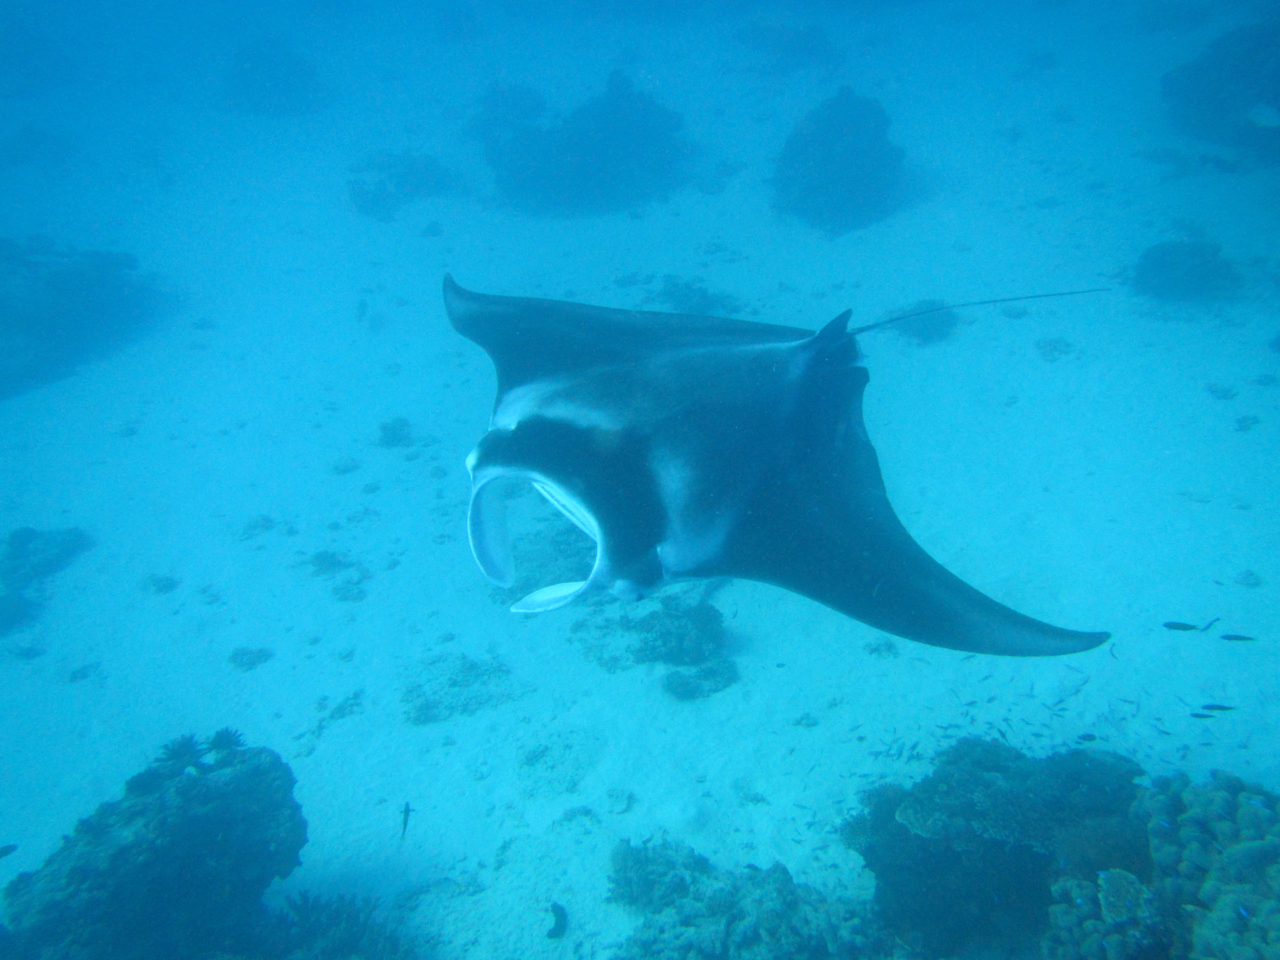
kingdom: Animalia
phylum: Chordata
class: Elasmobranchii
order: Myliobatiformes
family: Myliobatidae
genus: Mobula
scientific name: Mobula alfredi
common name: Reef manta ray
